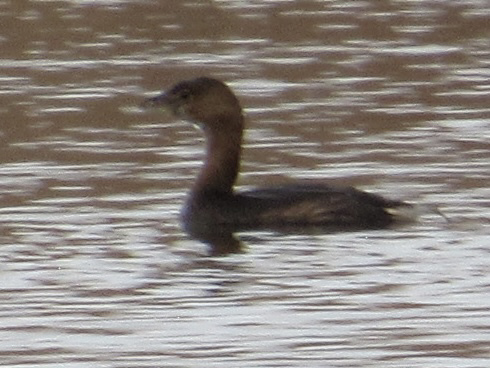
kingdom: Animalia
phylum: Chordata
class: Aves
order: Podicipediformes
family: Podicipedidae
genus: Podilymbus
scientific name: Podilymbus podiceps
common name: Pied-billed grebe
